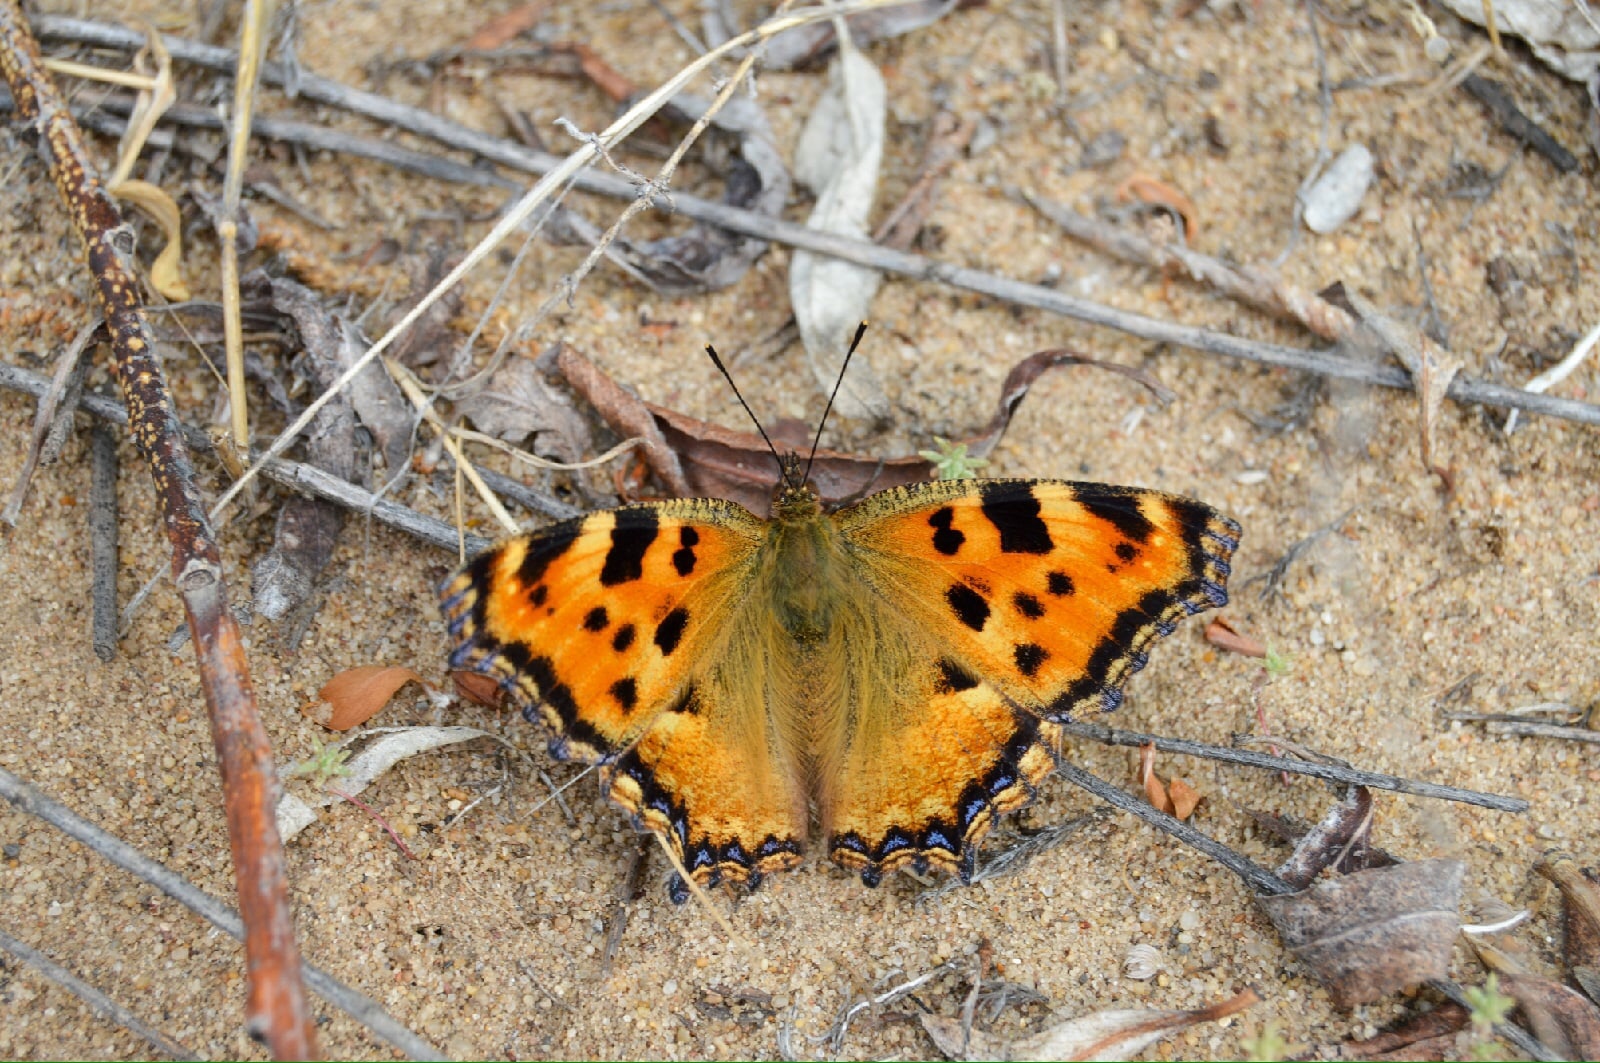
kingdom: Animalia
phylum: Arthropoda
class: Insecta
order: Lepidoptera
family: Nymphalidae
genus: Nymphalis
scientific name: Nymphalis polychloros
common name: Large tortoiseshell
